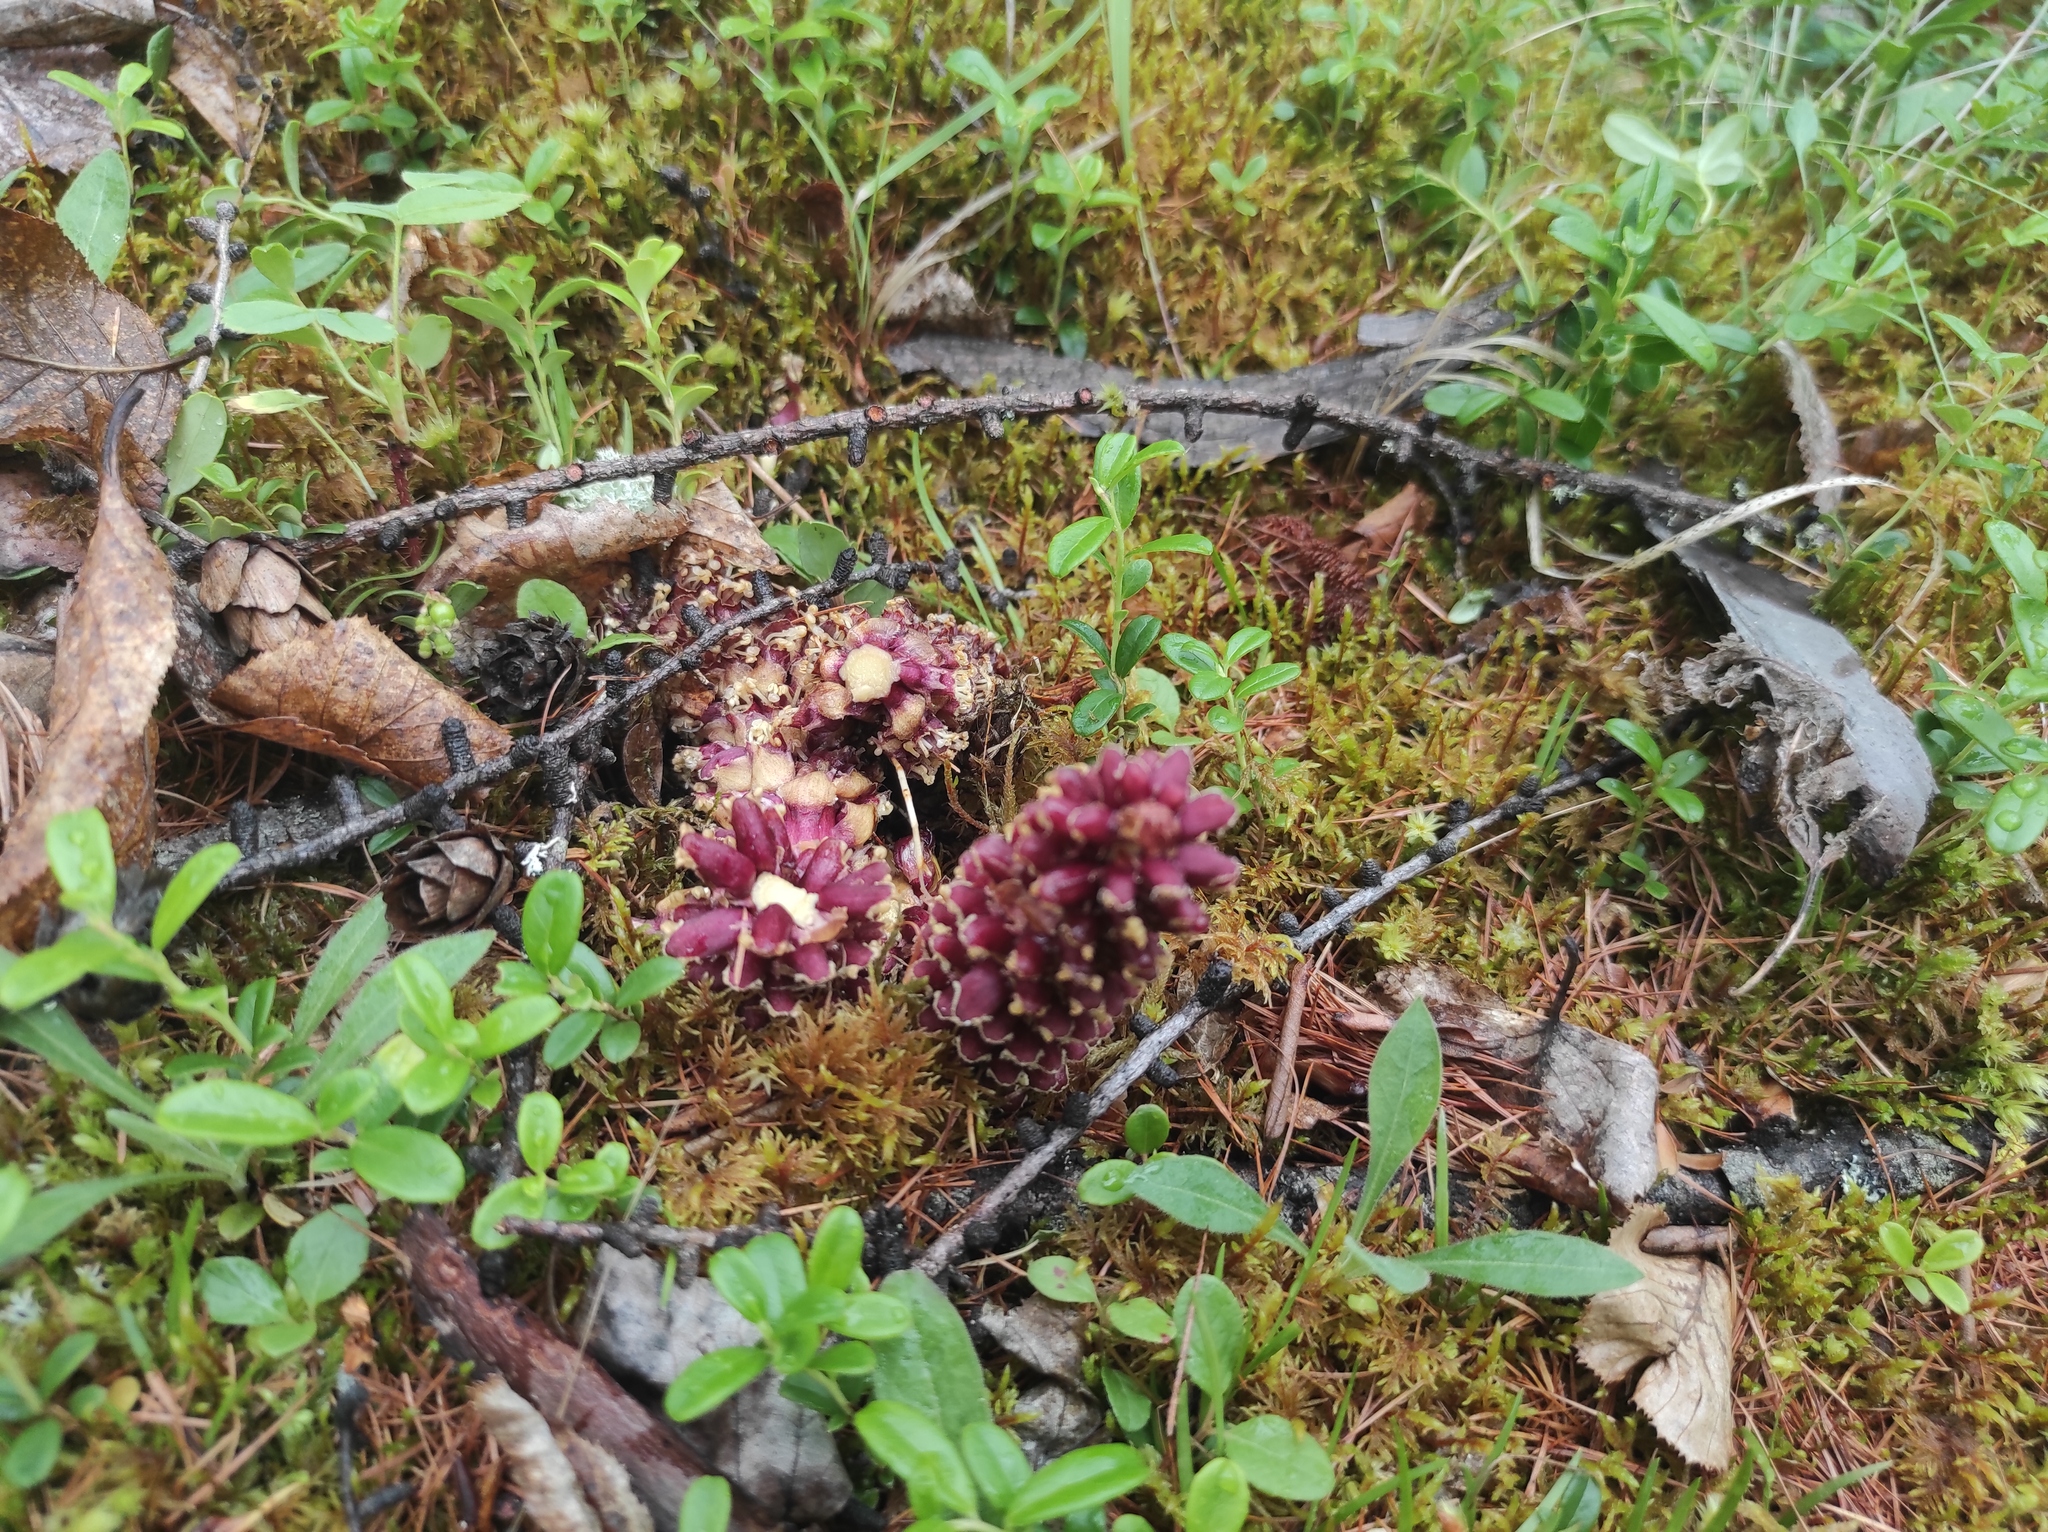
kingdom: Plantae
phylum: Tracheophyta
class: Magnoliopsida
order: Ericales
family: Ericaceae
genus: Vaccinium
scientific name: Vaccinium vitis-idaea
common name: Cowberry
